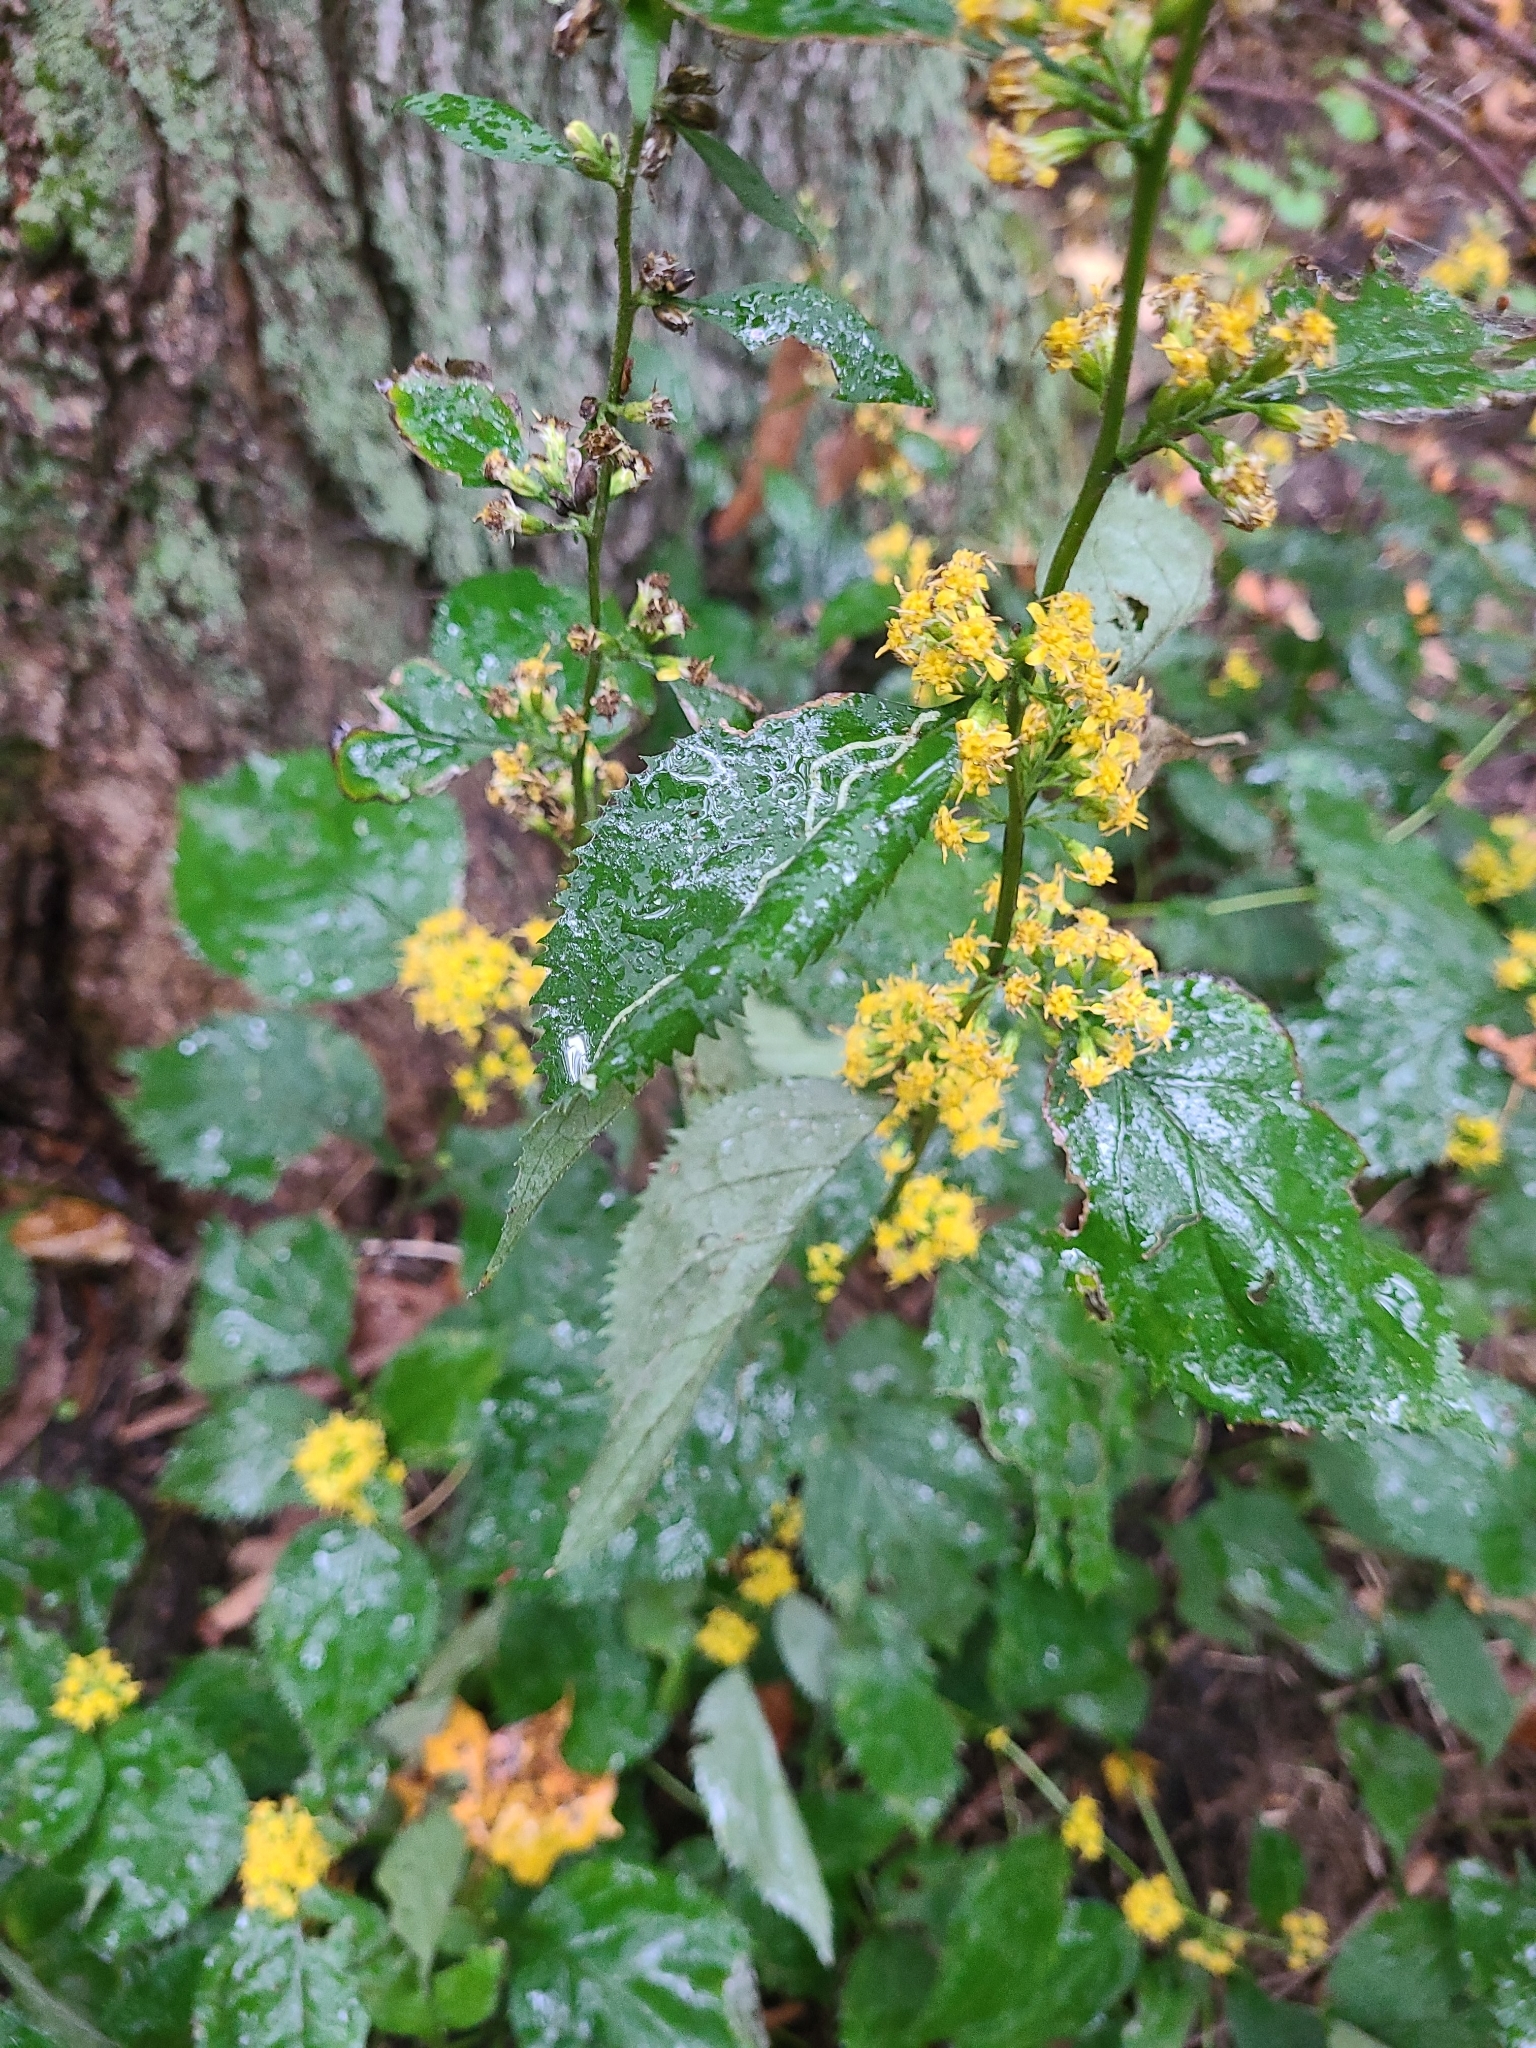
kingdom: Plantae
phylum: Tracheophyta
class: Magnoliopsida
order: Asterales
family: Asteraceae
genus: Solidago
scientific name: Solidago flexicaulis
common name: Zig-zag goldenrod
